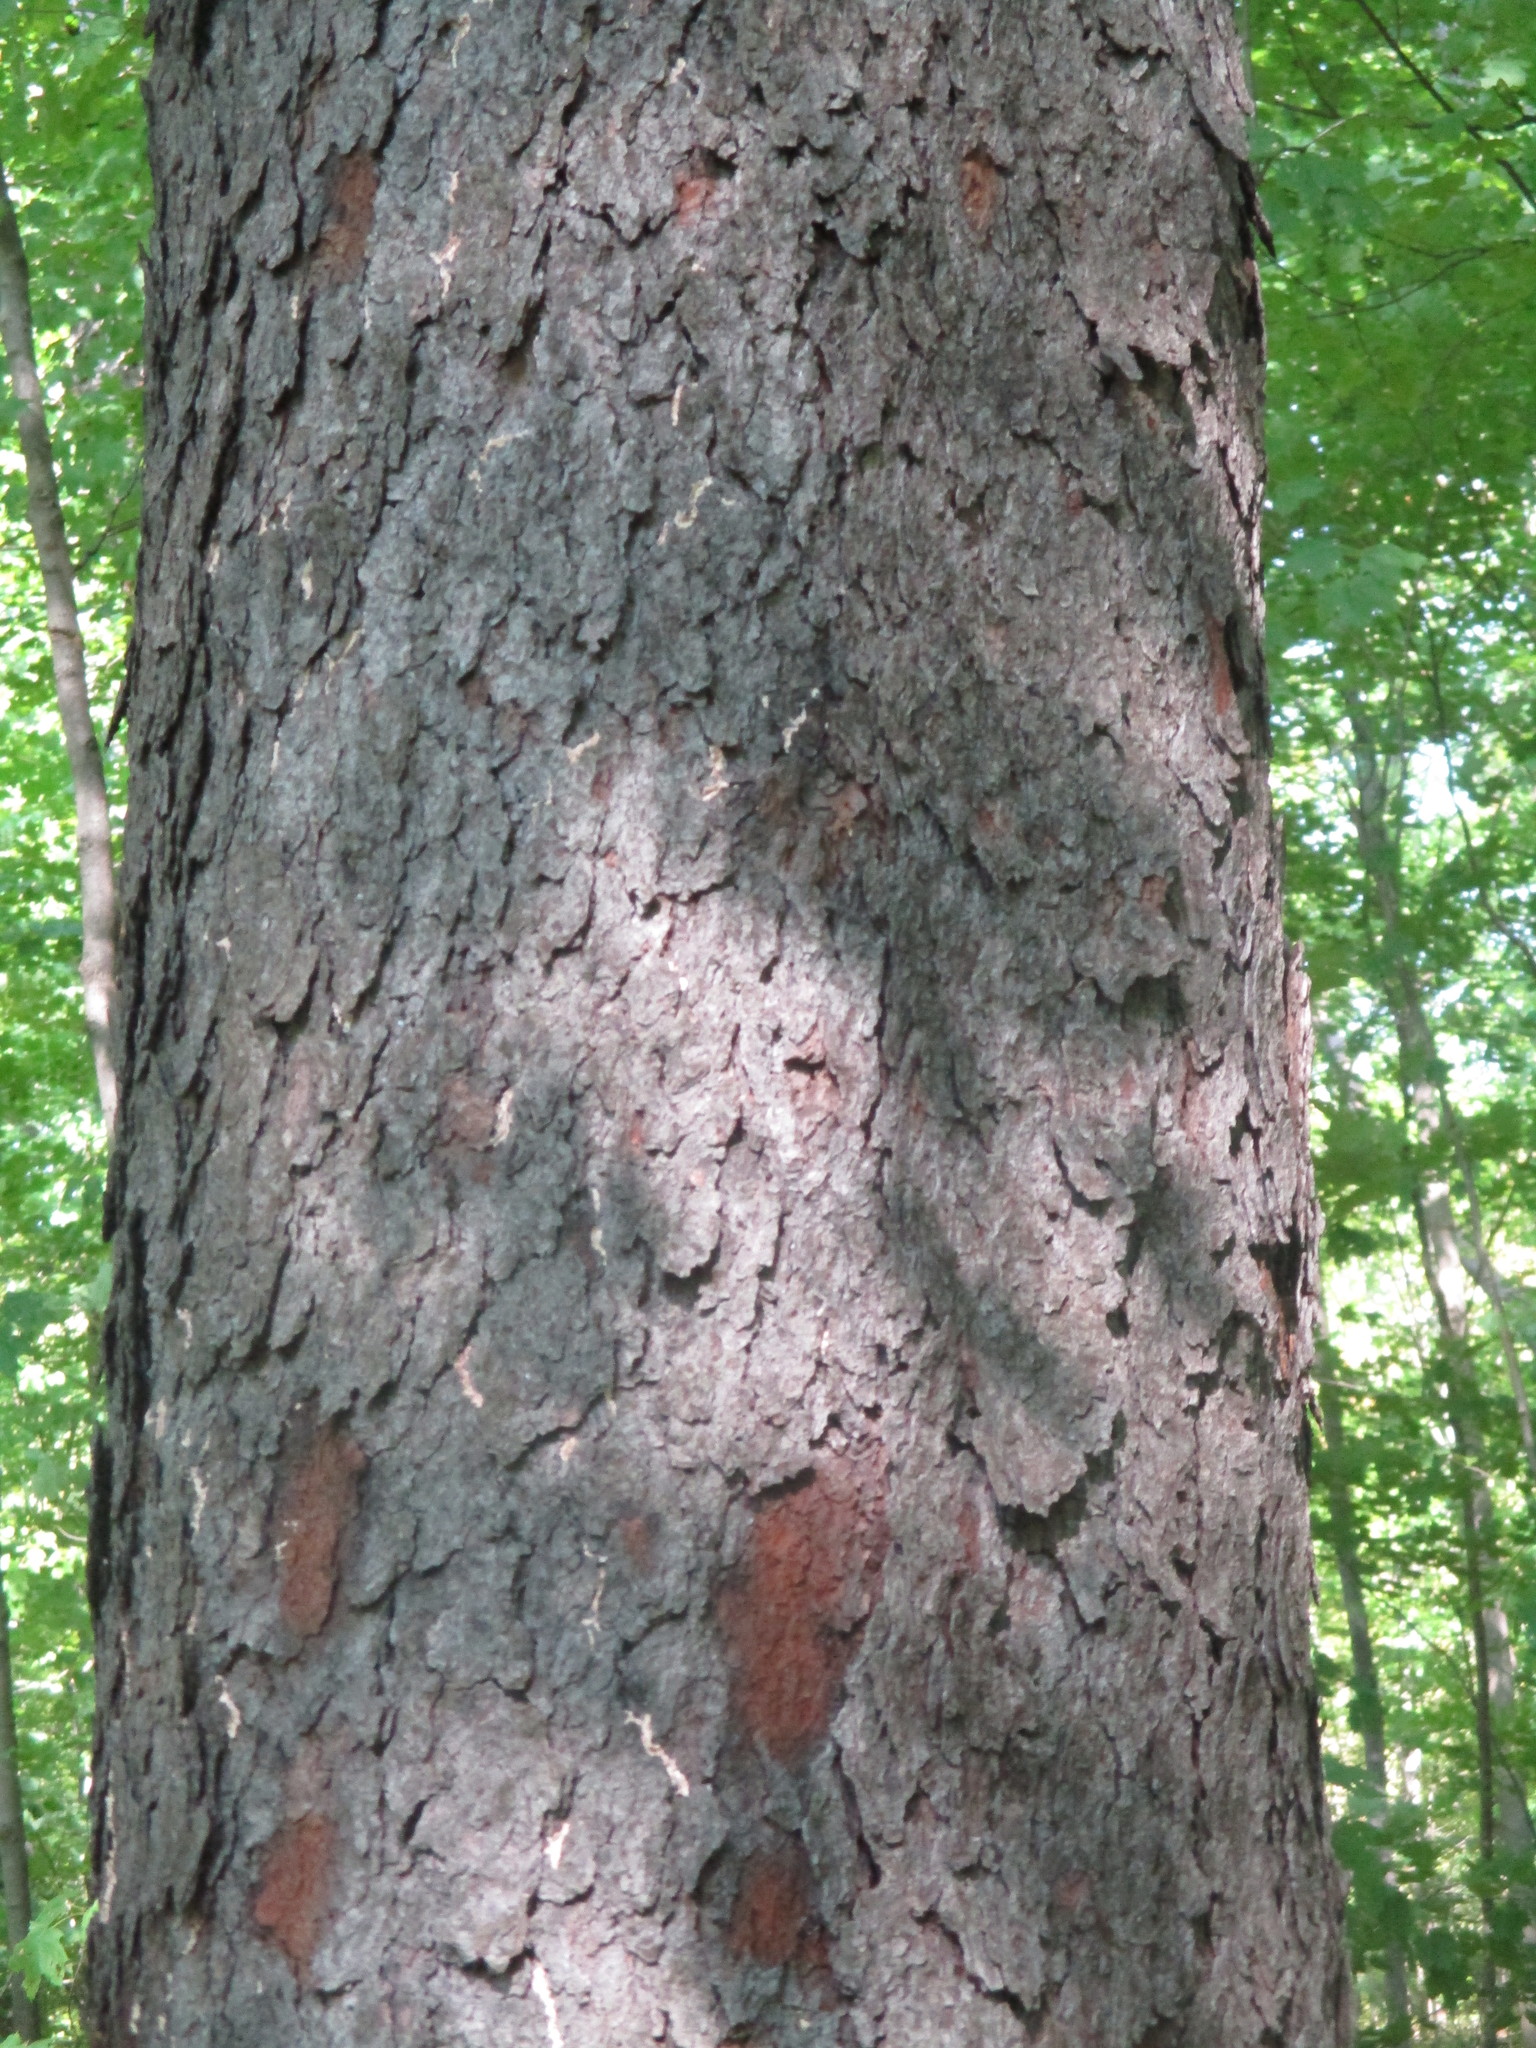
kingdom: Plantae
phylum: Tracheophyta
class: Magnoliopsida
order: Rosales
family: Rosaceae
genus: Prunus
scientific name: Prunus serotina
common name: Black cherry
